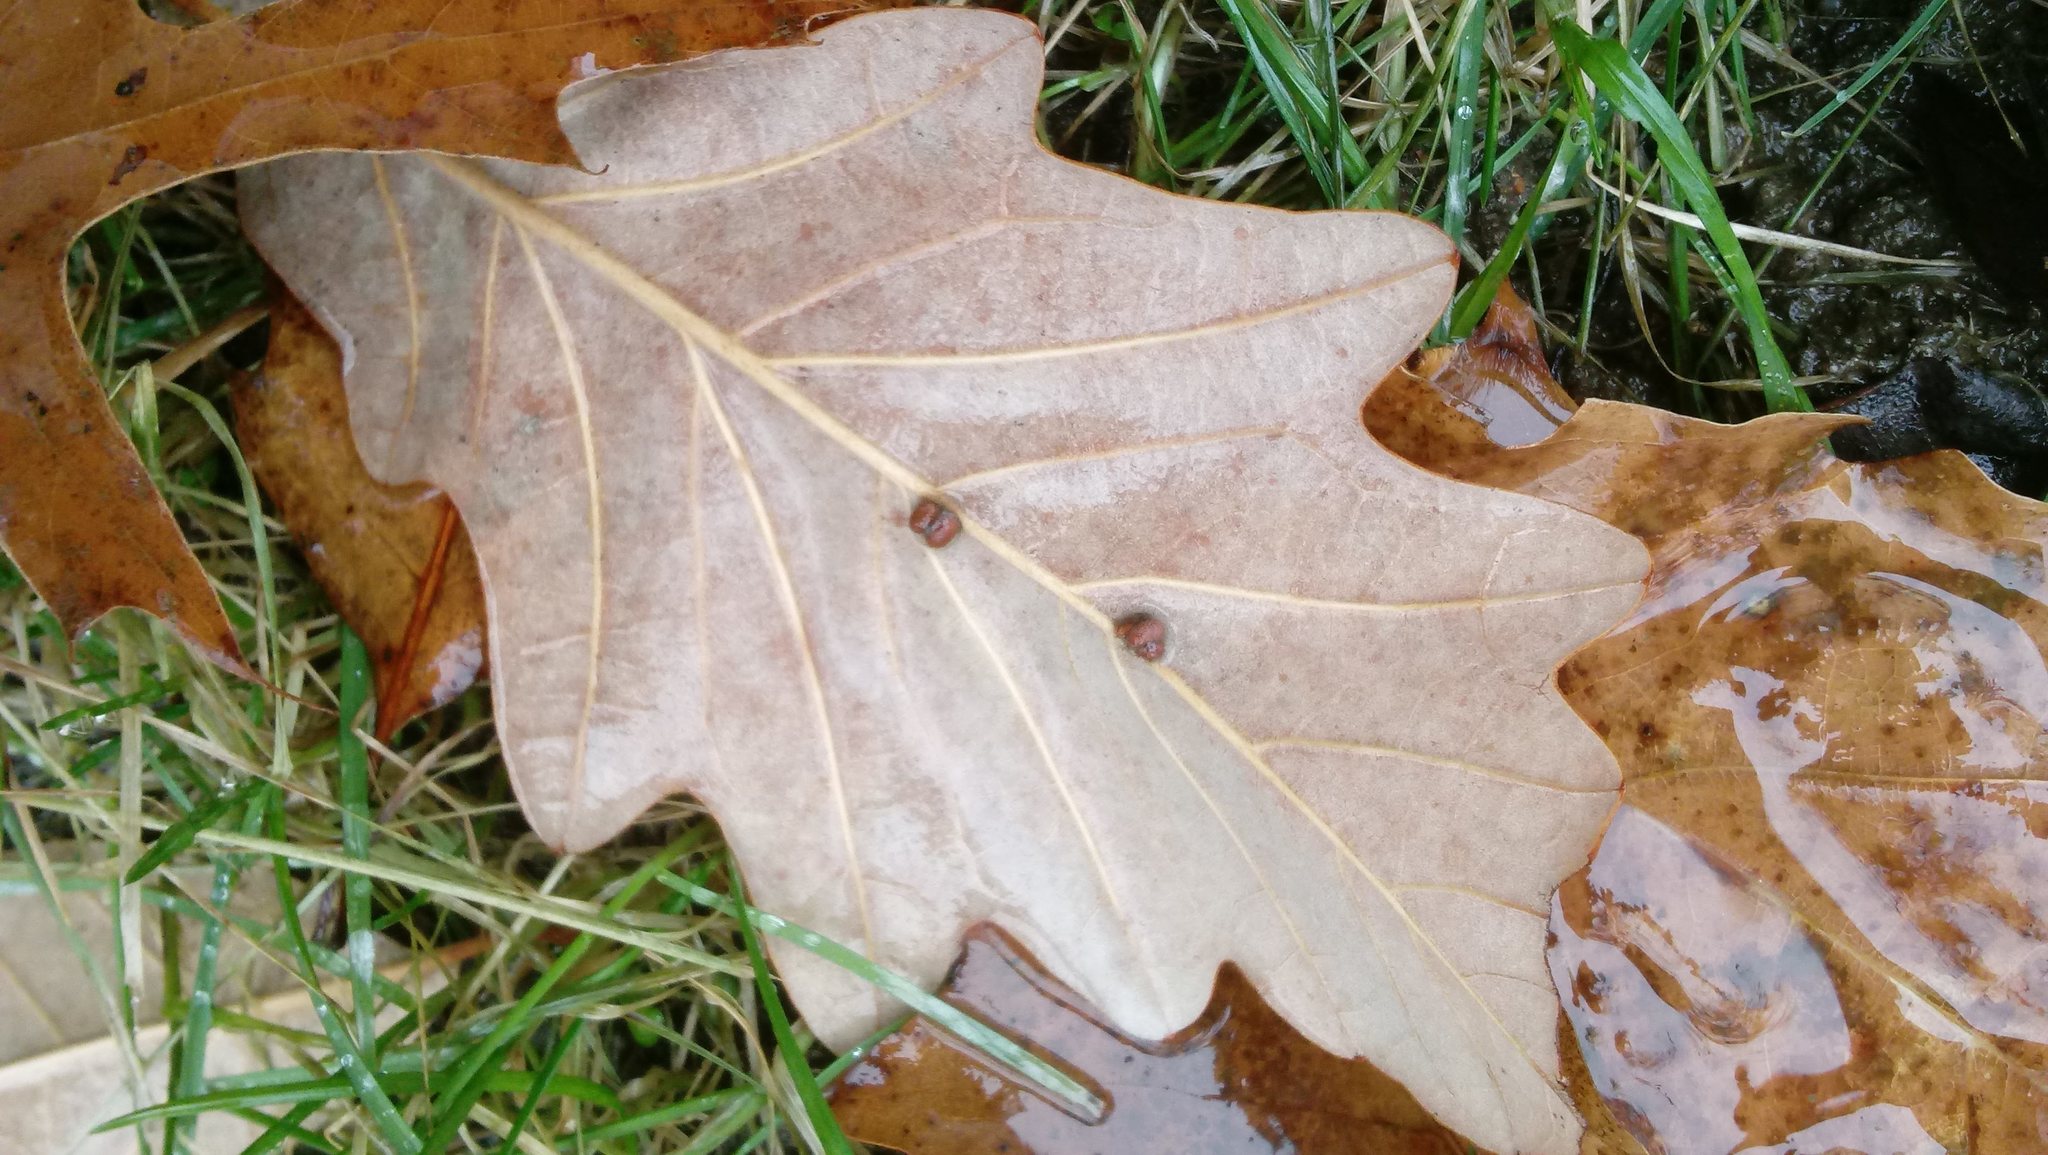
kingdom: Animalia
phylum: Arthropoda
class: Insecta
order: Hymenoptera
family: Cynipidae
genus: Andricus
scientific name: Andricus Druon ignotum
